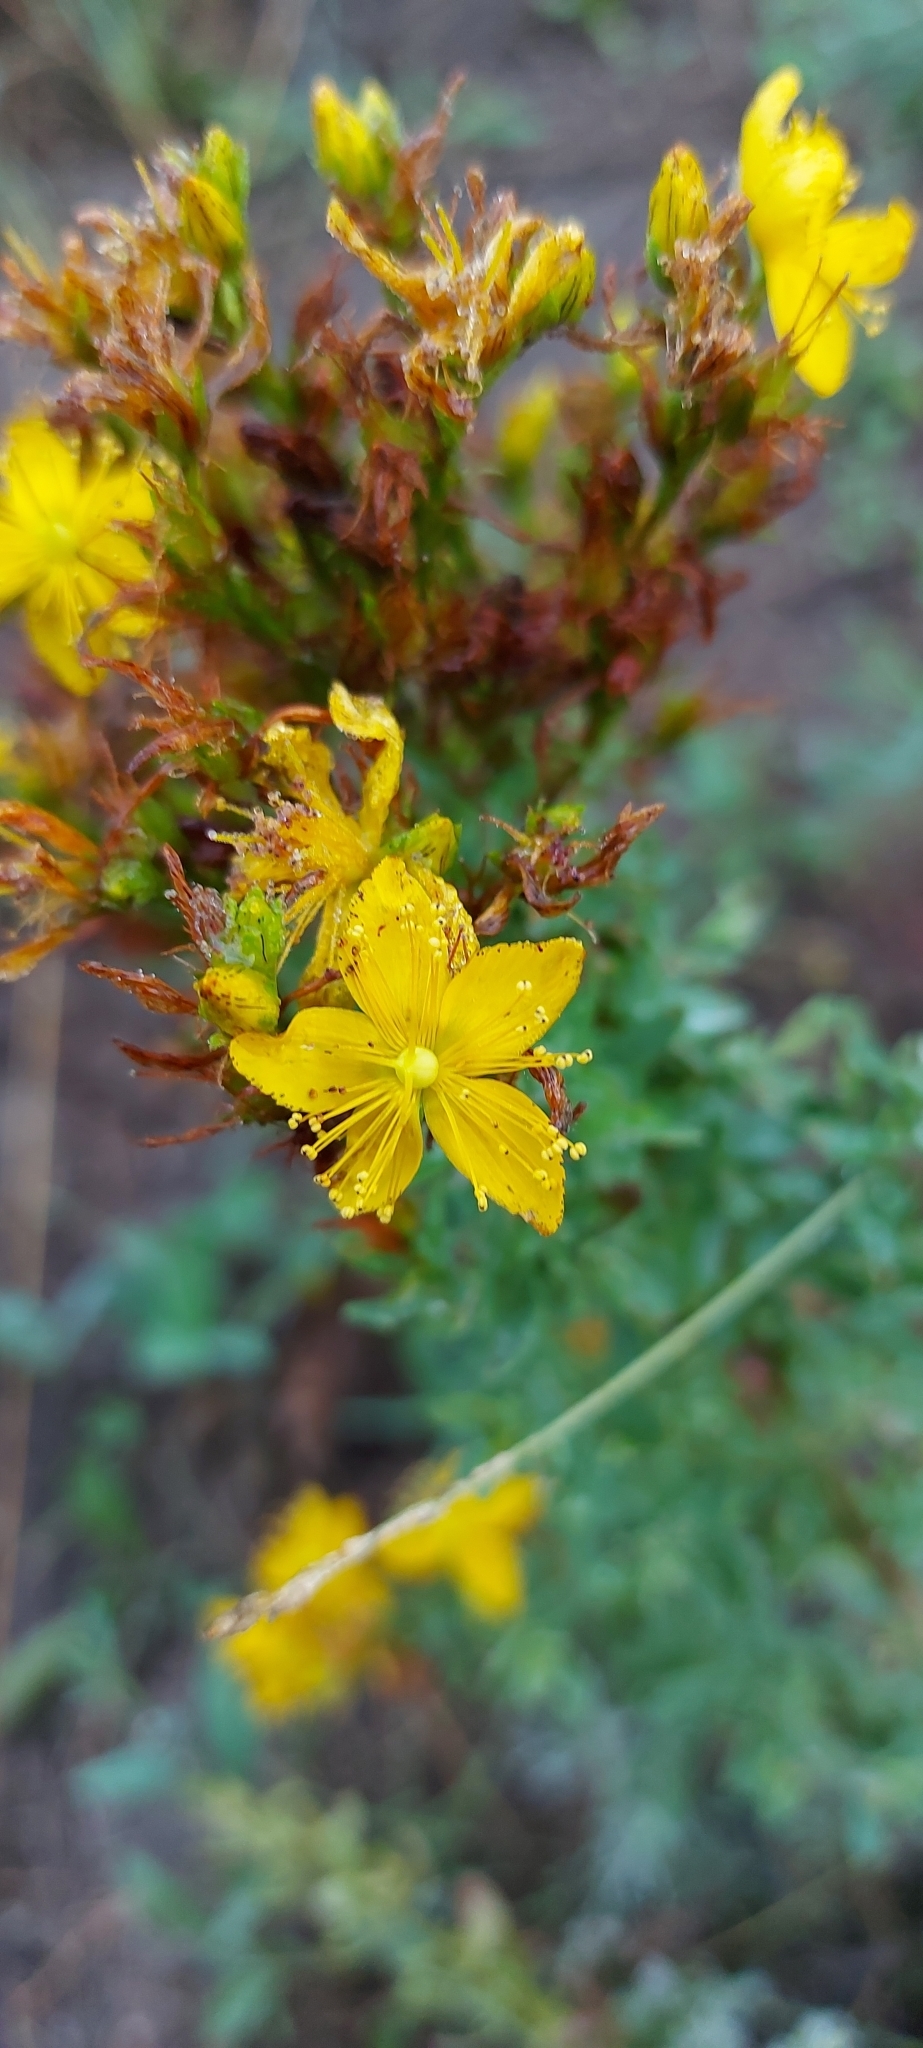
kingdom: Plantae
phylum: Tracheophyta
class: Magnoliopsida
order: Malpighiales
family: Hypericaceae
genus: Hypericum
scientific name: Hypericum perforatum
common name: Common st. johnswort
